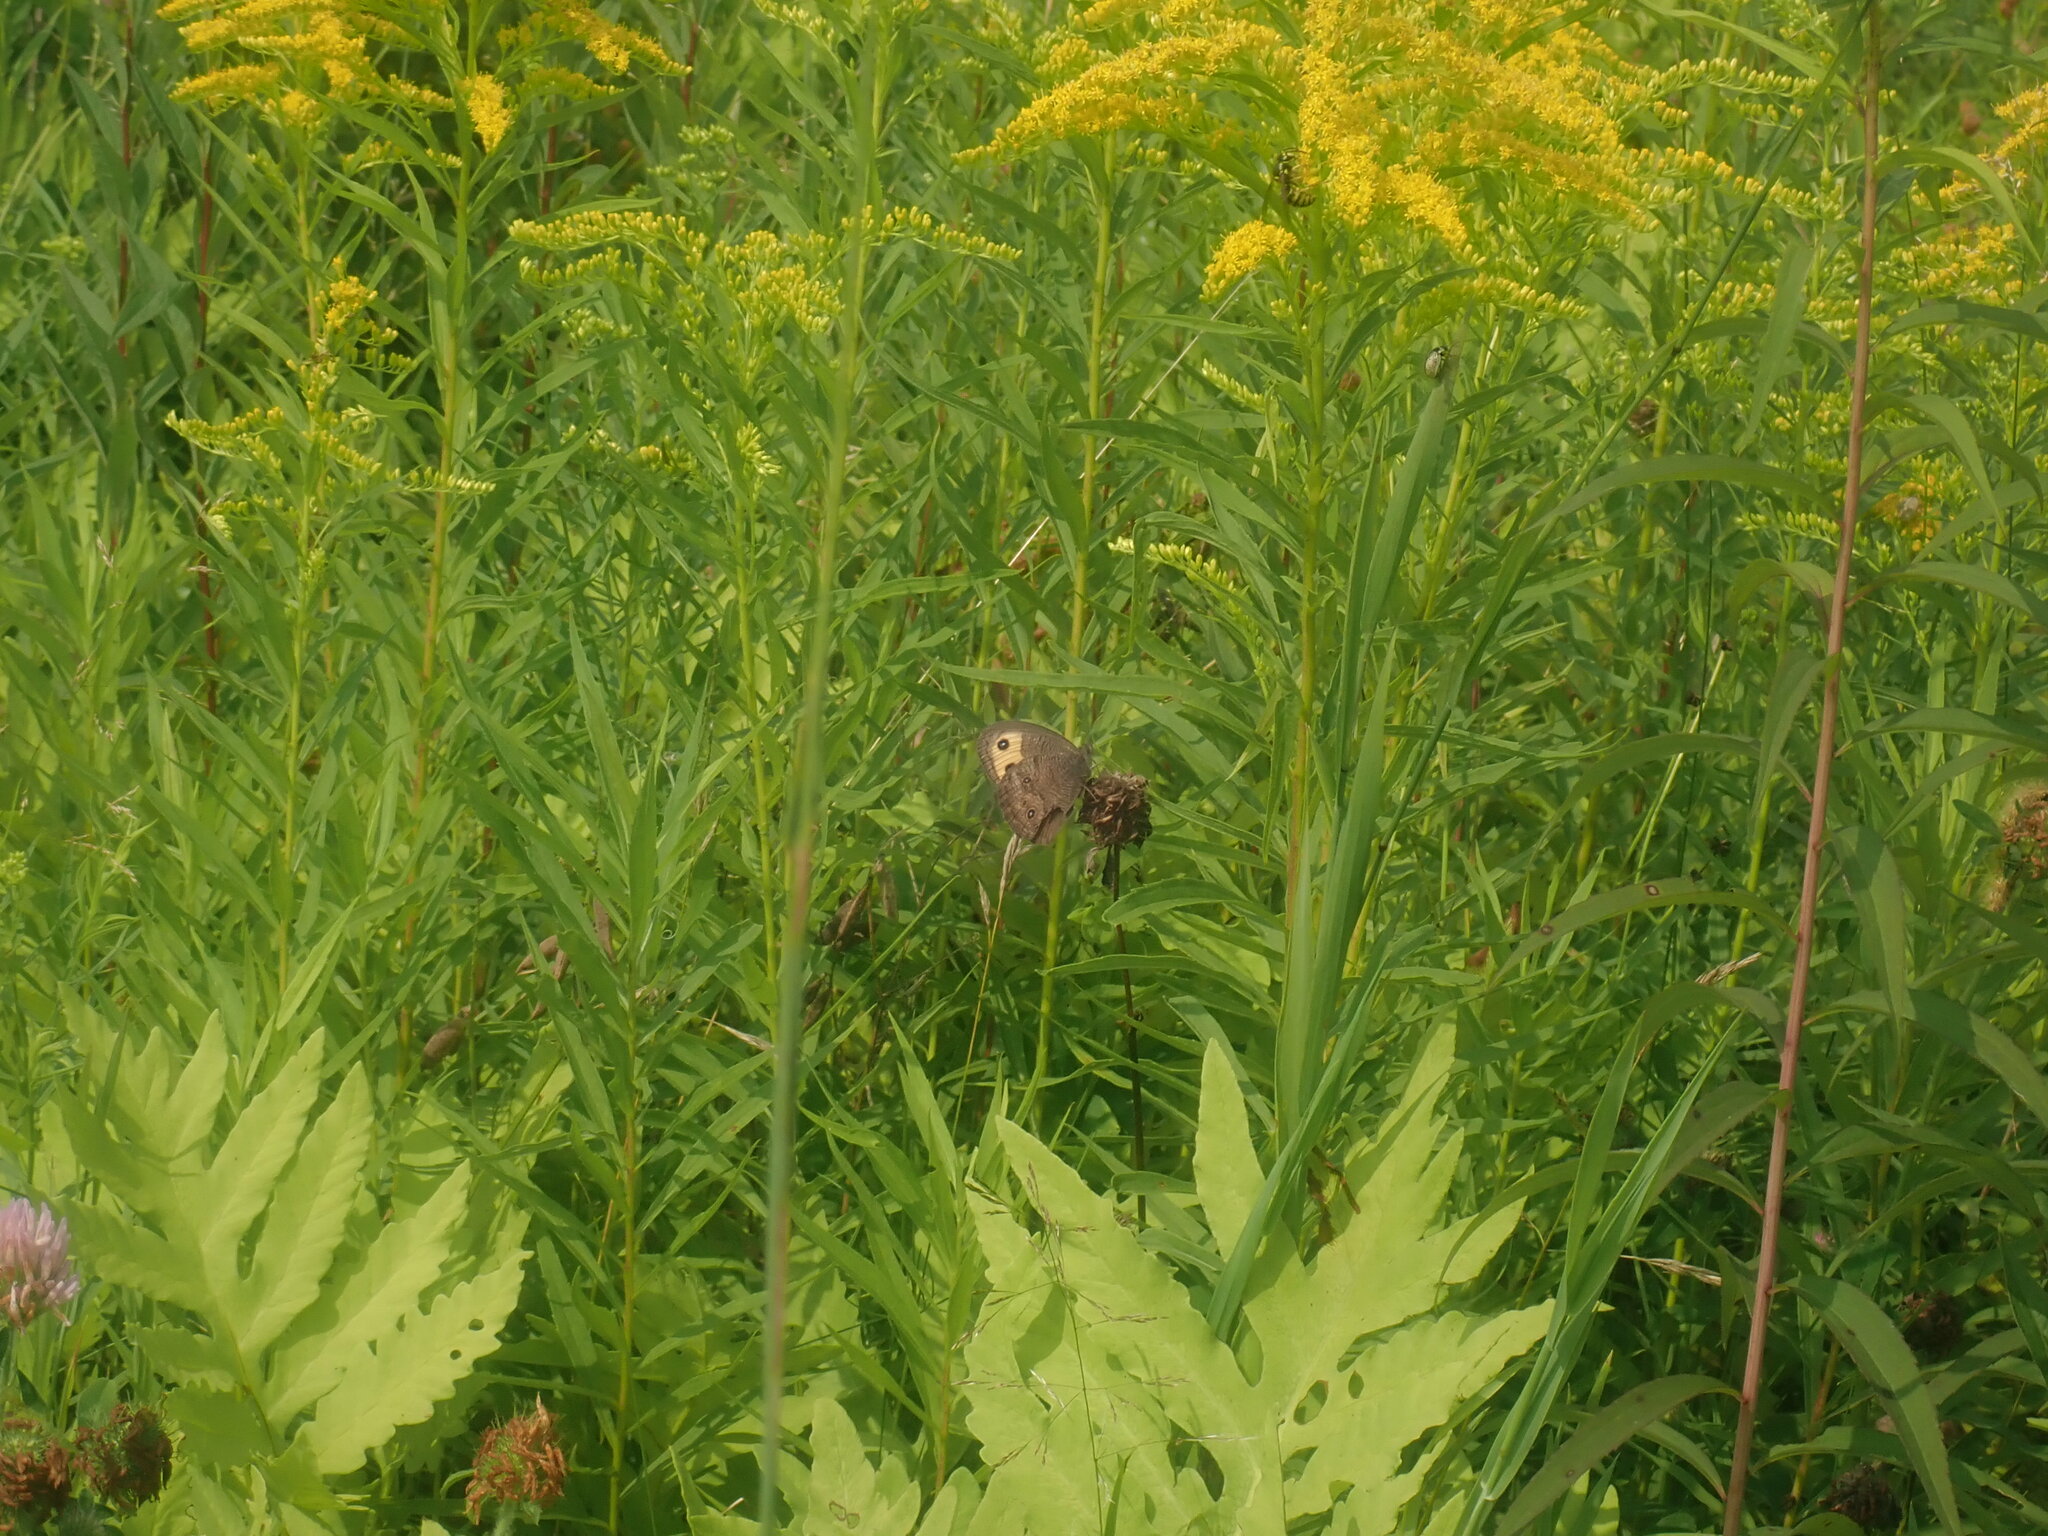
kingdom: Animalia
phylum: Arthropoda
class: Insecta
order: Lepidoptera
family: Nymphalidae
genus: Cercyonis
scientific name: Cercyonis pegala
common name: Common wood-nymph
